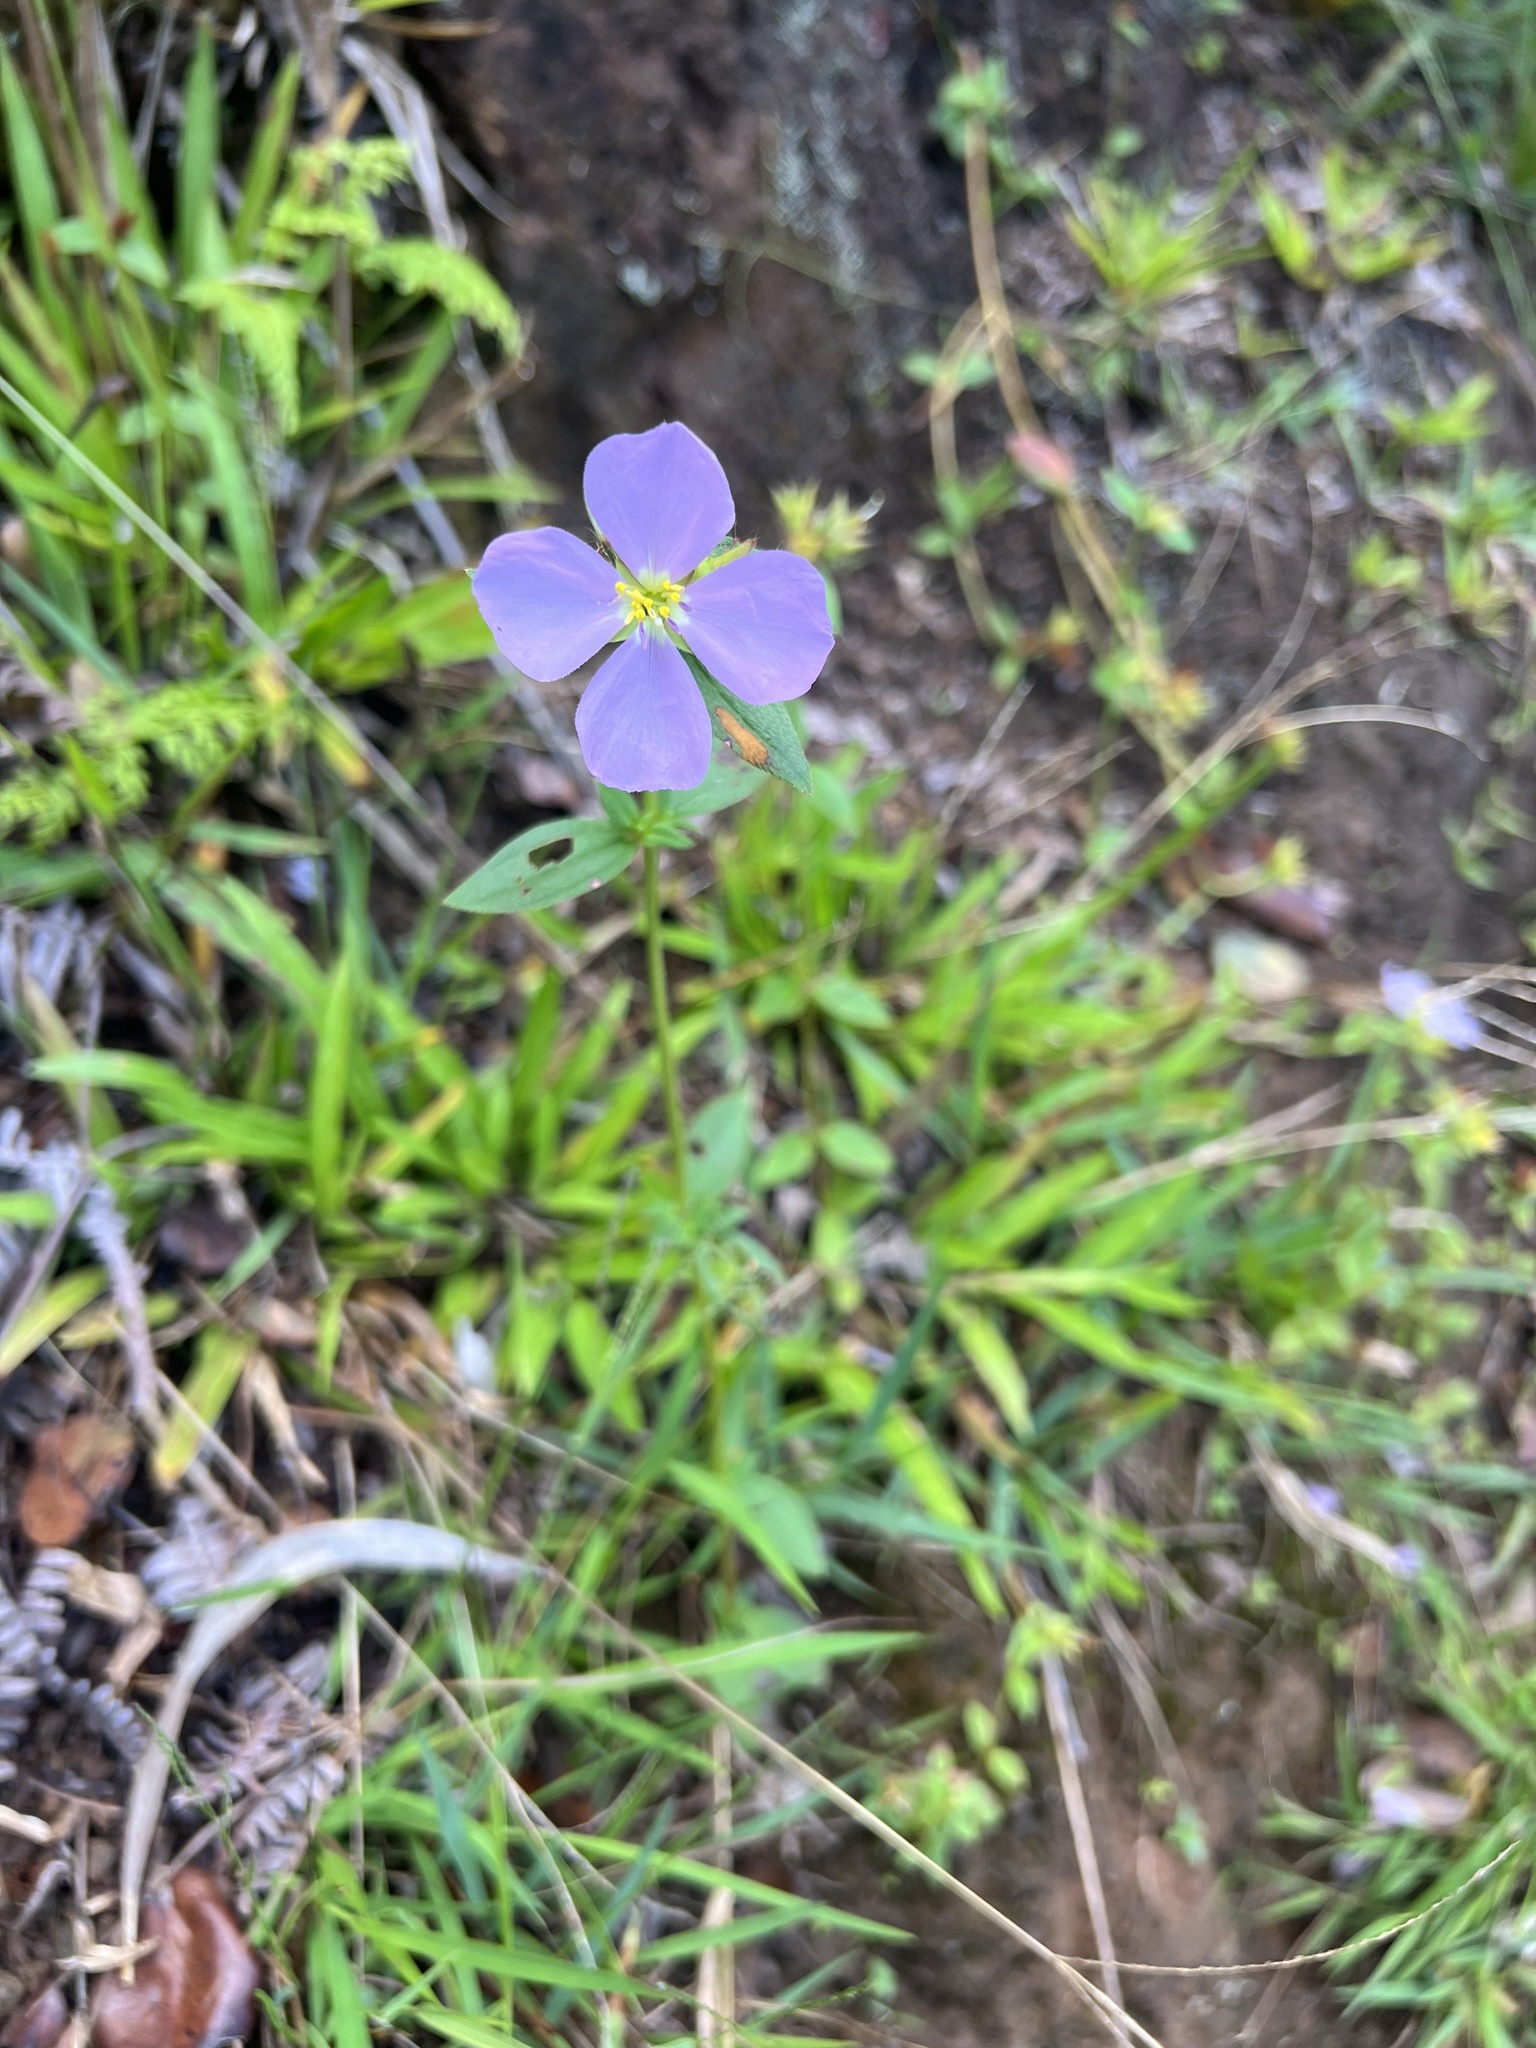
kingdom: Plantae
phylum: Tracheophyta
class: Magnoliopsida
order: Myrtales
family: Melastomataceae
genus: Pterolepis
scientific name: Pterolepis glomerata
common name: False meadowbeauty
